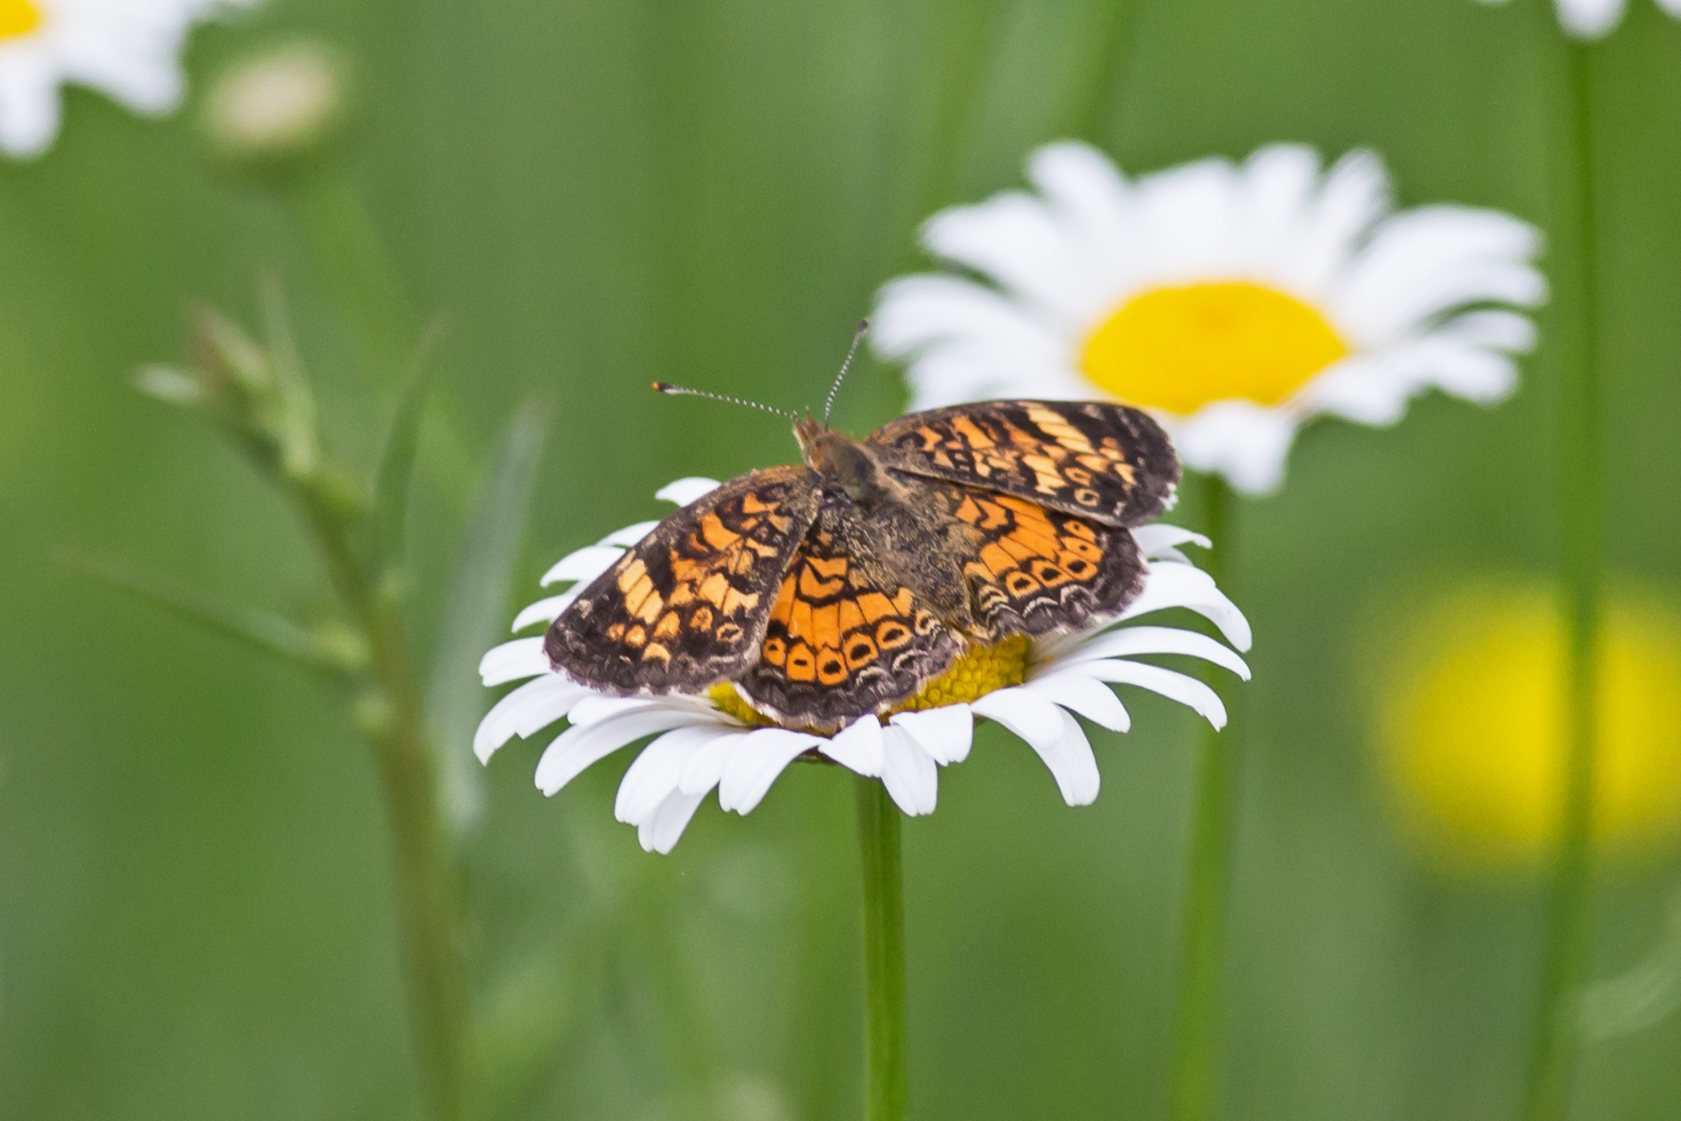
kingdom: Animalia
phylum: Arthropoda
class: Insecta
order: Lepidoptera
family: Nymphalidae
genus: Phyciodes
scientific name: Phyciodes tharos
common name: Pearl crescent
